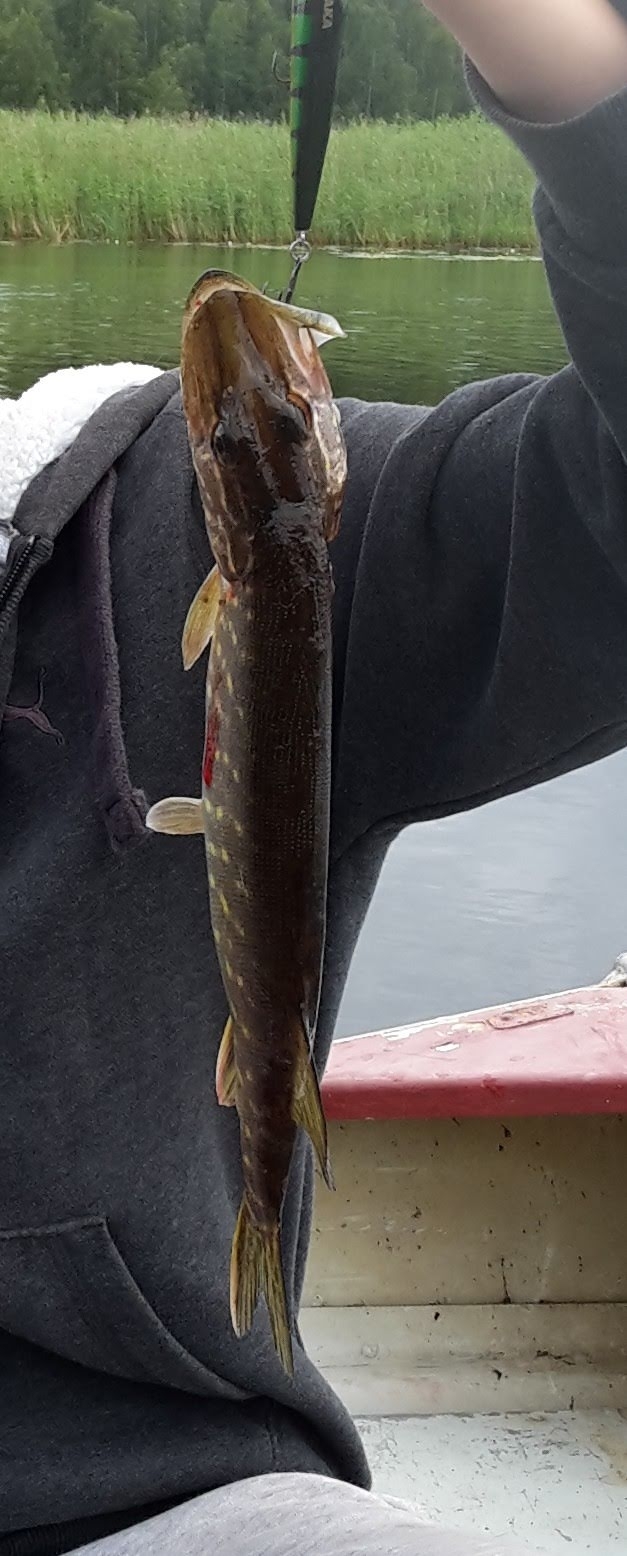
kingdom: Animalia
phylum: Chordata
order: Esociformes
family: Esocidae
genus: Esox
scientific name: Esox lucius
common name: Northern pike
